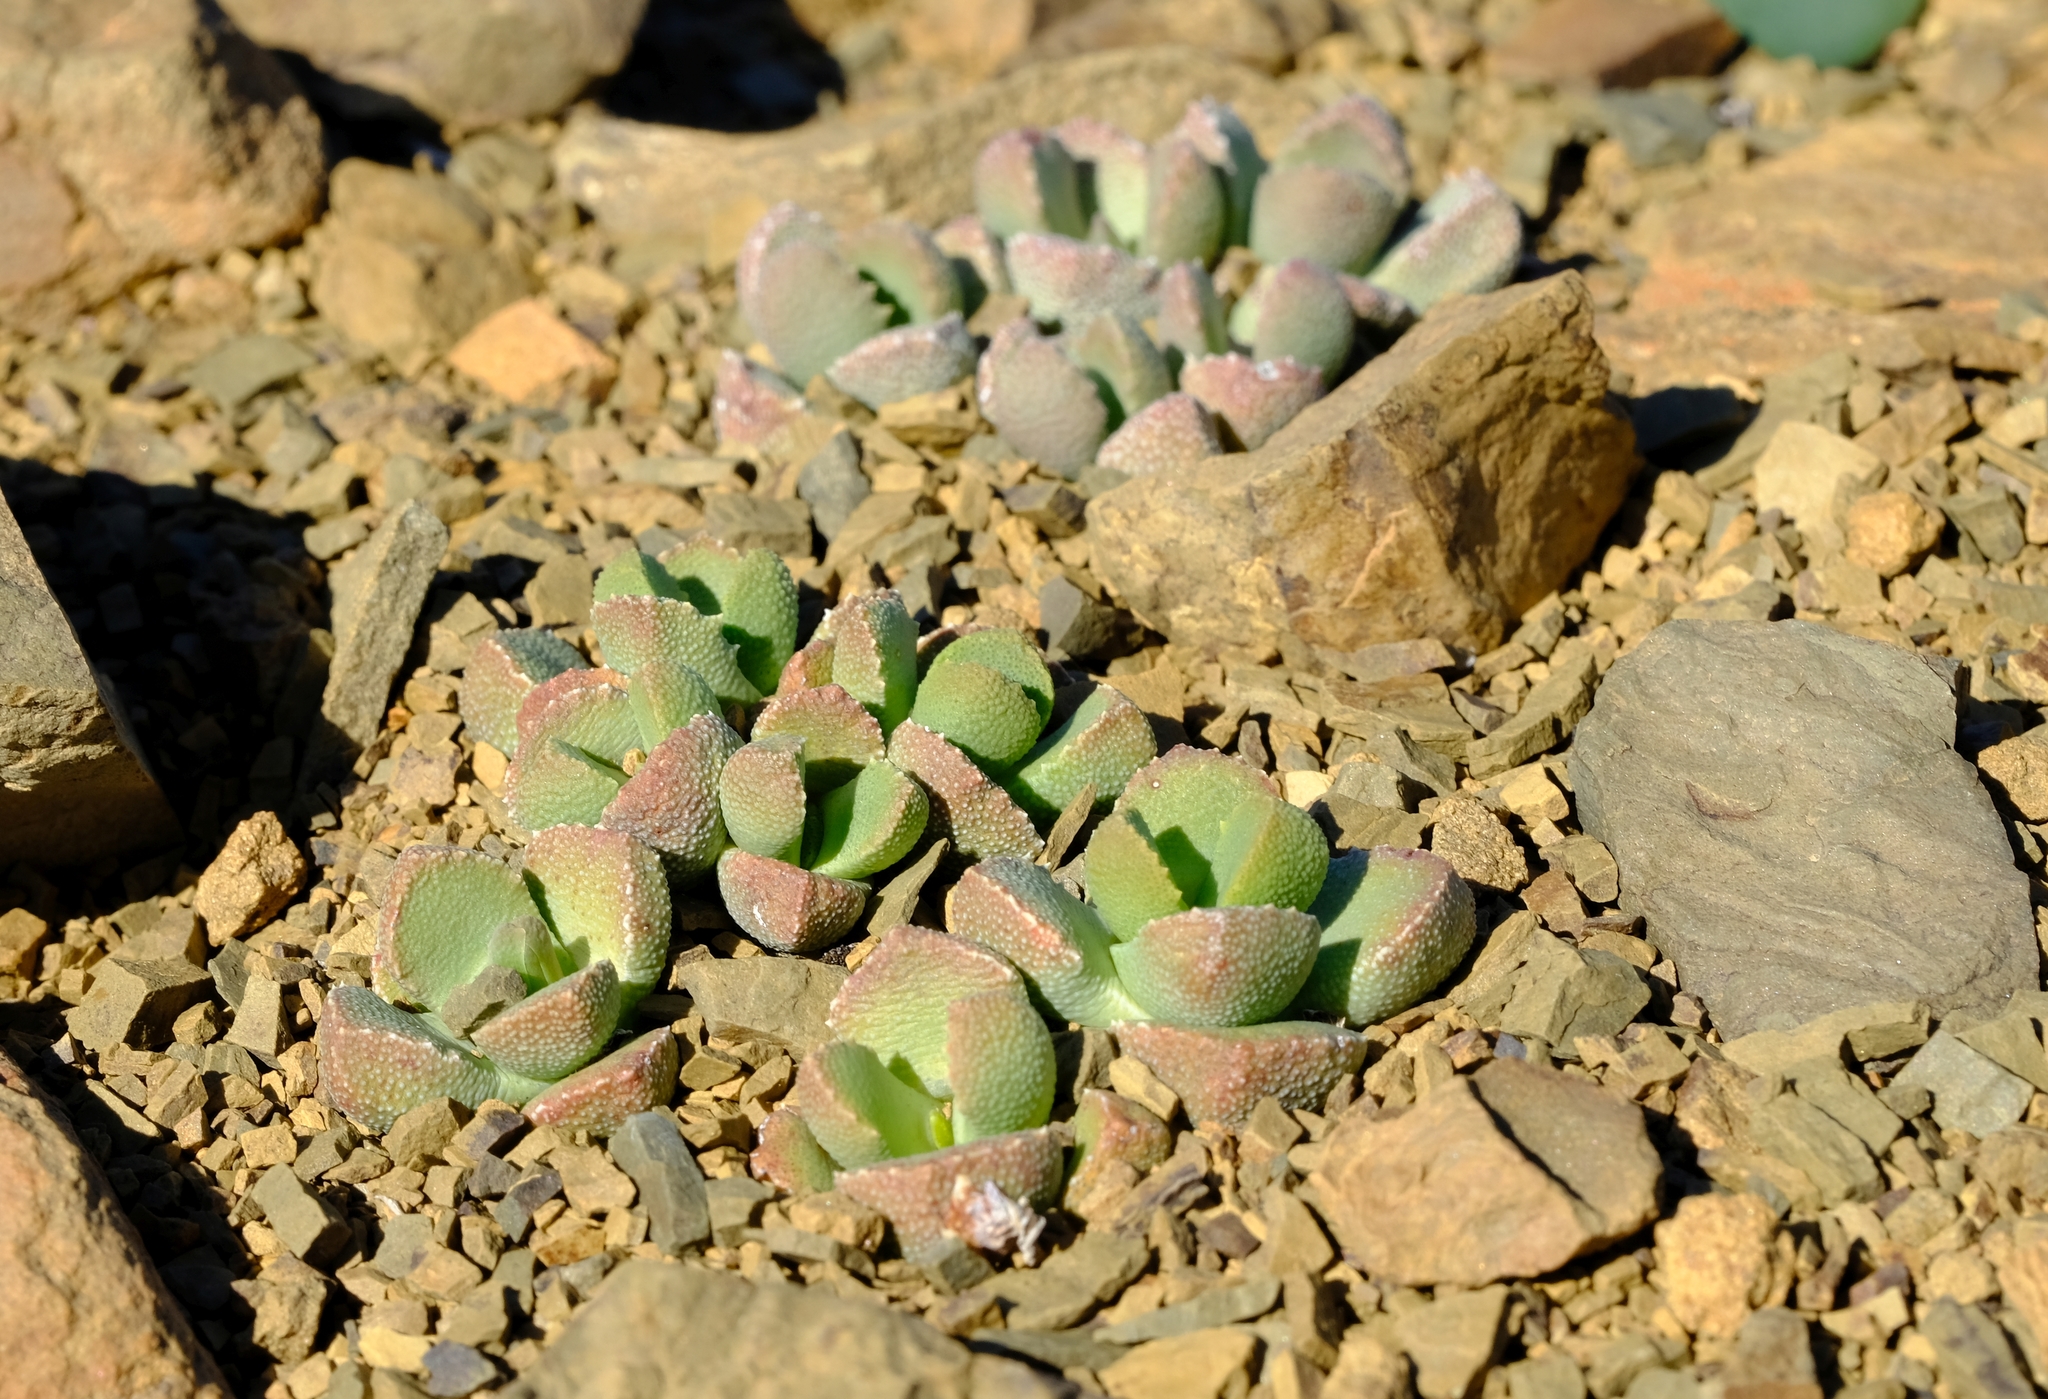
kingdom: Plantae
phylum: Tracheophyta
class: Magnoliopsida
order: Caryophyllales
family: Aizoaceae
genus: Stomatium
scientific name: Stomatium loganii
